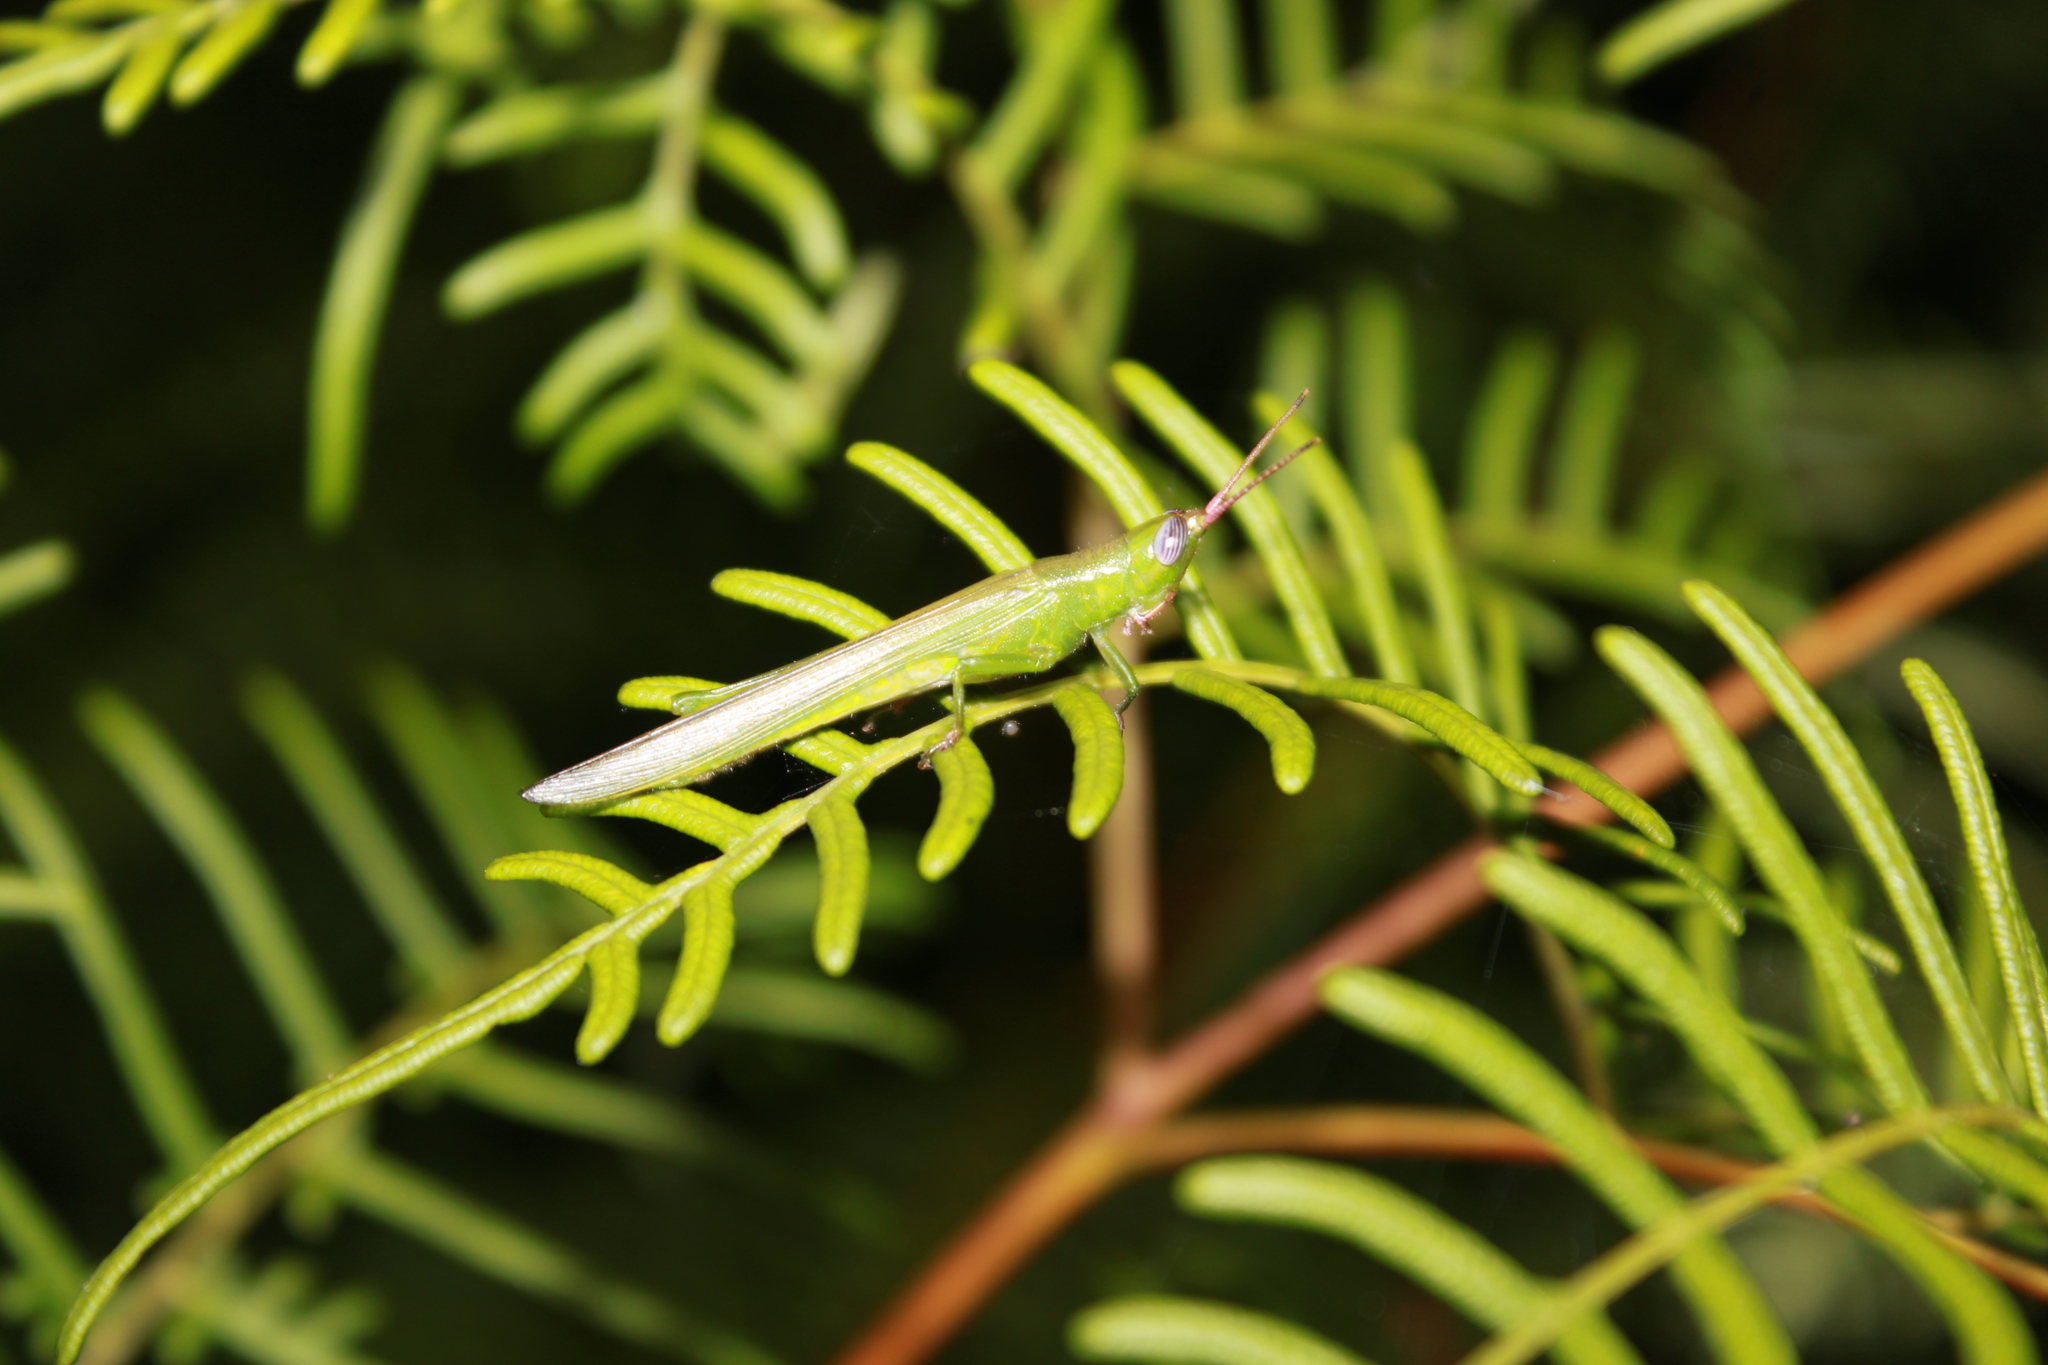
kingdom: Animalia
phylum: Arthropoda
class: Insecta
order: Orthoptera
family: Acrididae
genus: Stenacris
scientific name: Stenacris vitreipennis
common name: Glassy-winged toothpick grasshopper
